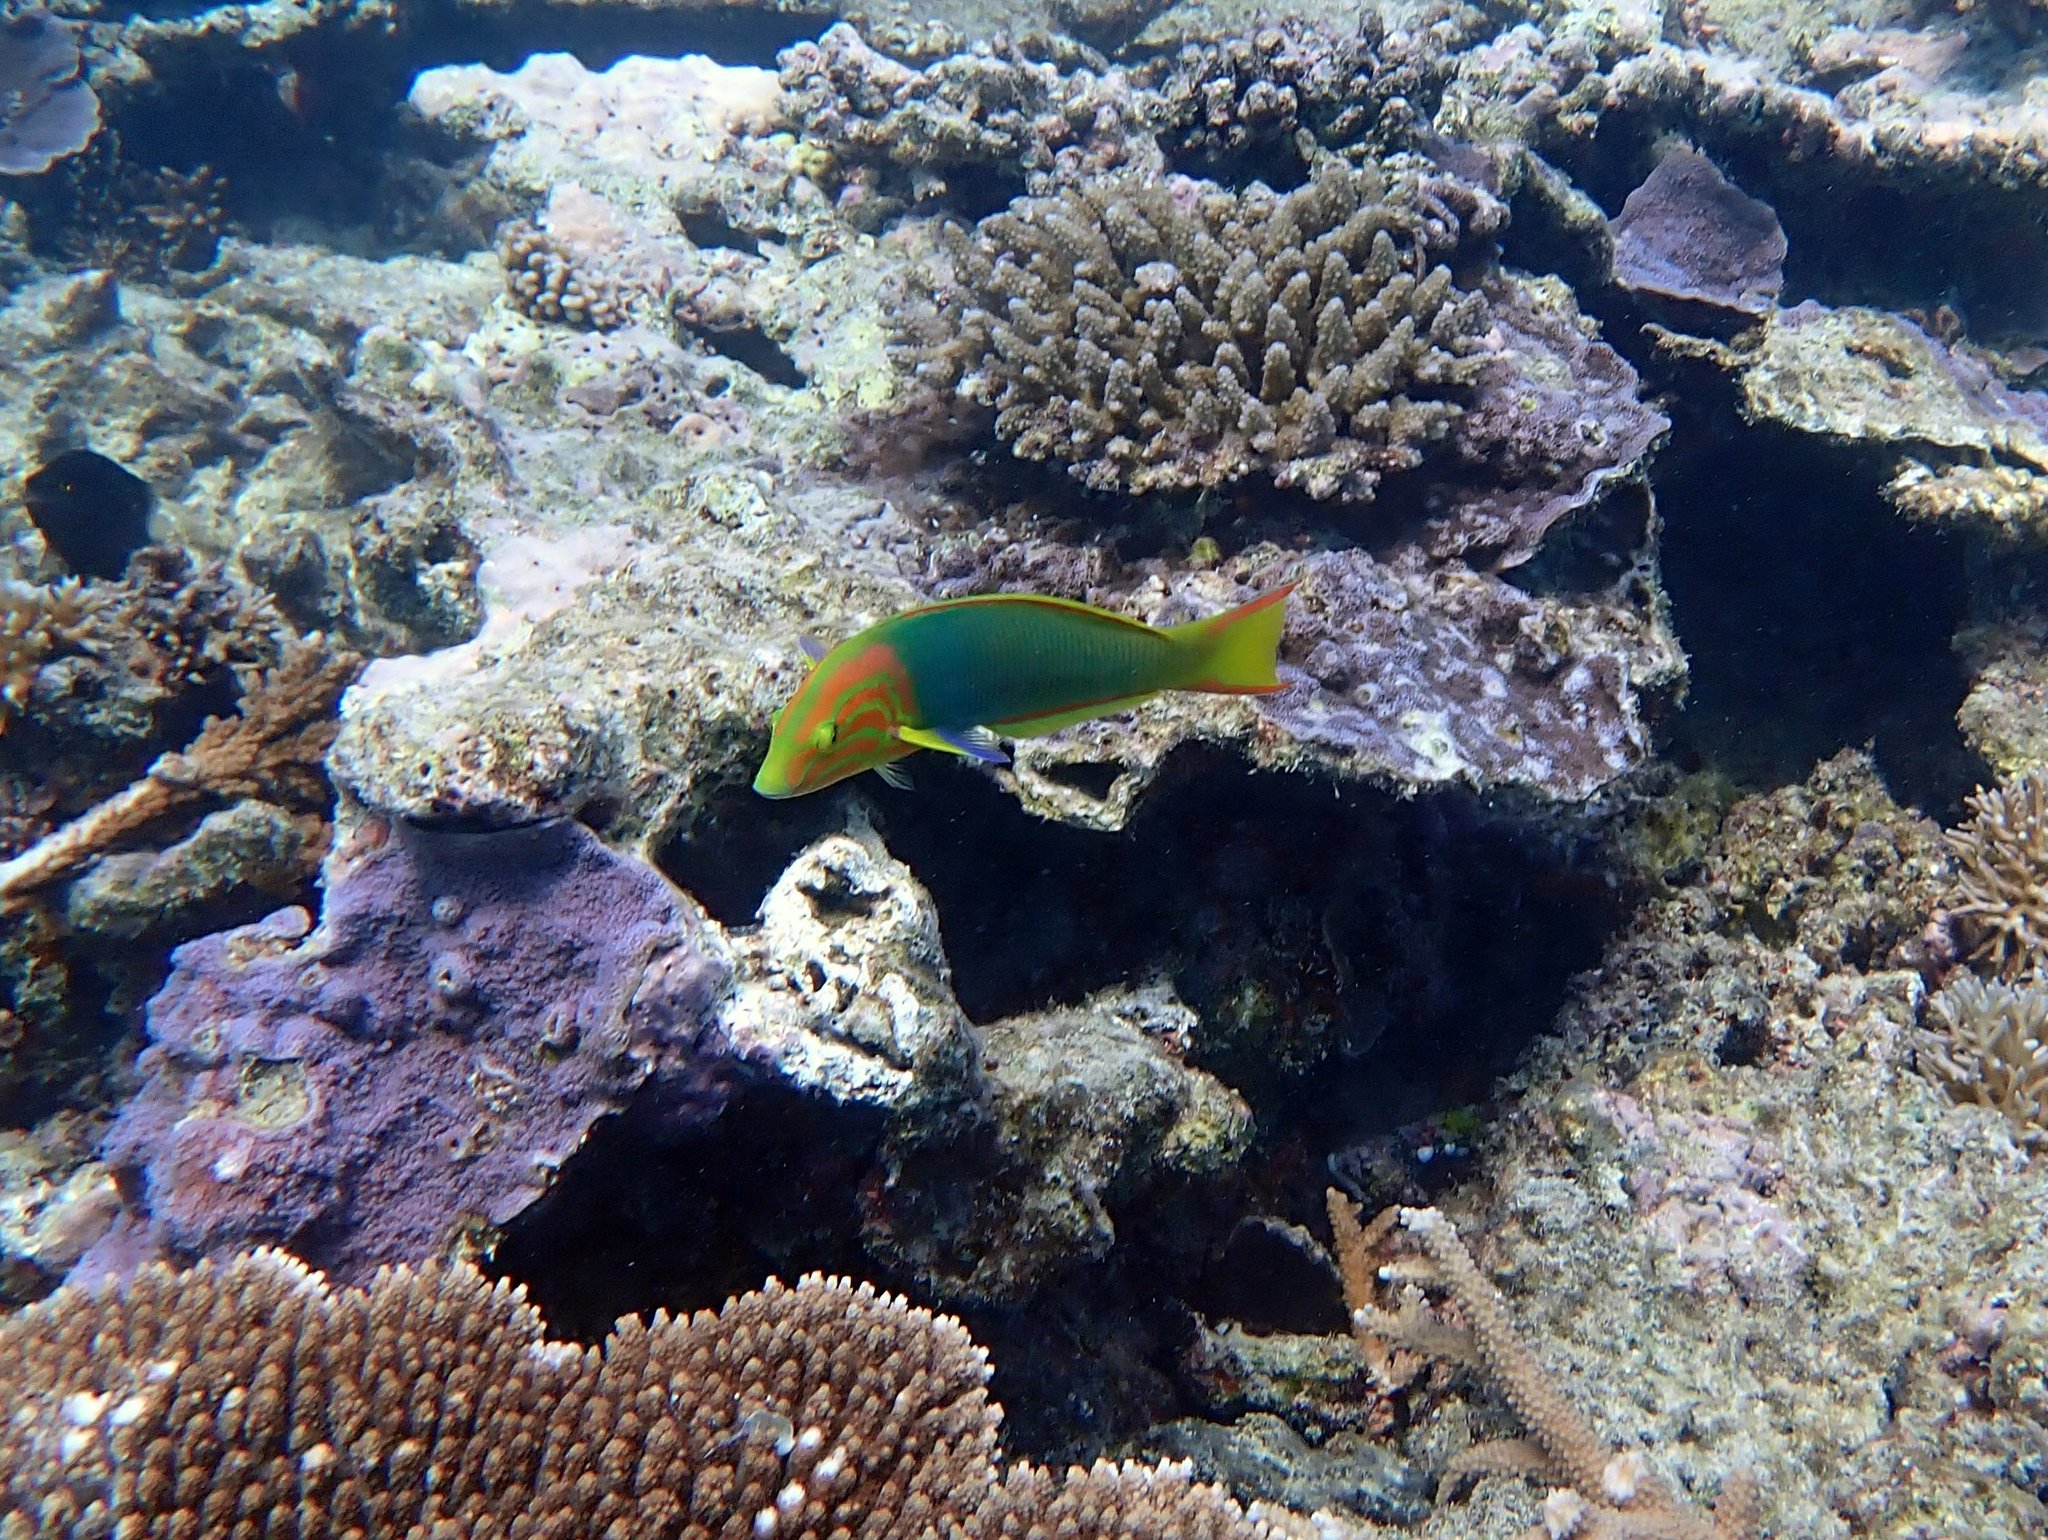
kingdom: Animalia
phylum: Chordata
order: Perciformes
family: Labridae
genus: Thalassoma
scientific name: Thalassoma lutescens
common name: Green moon wrasse
